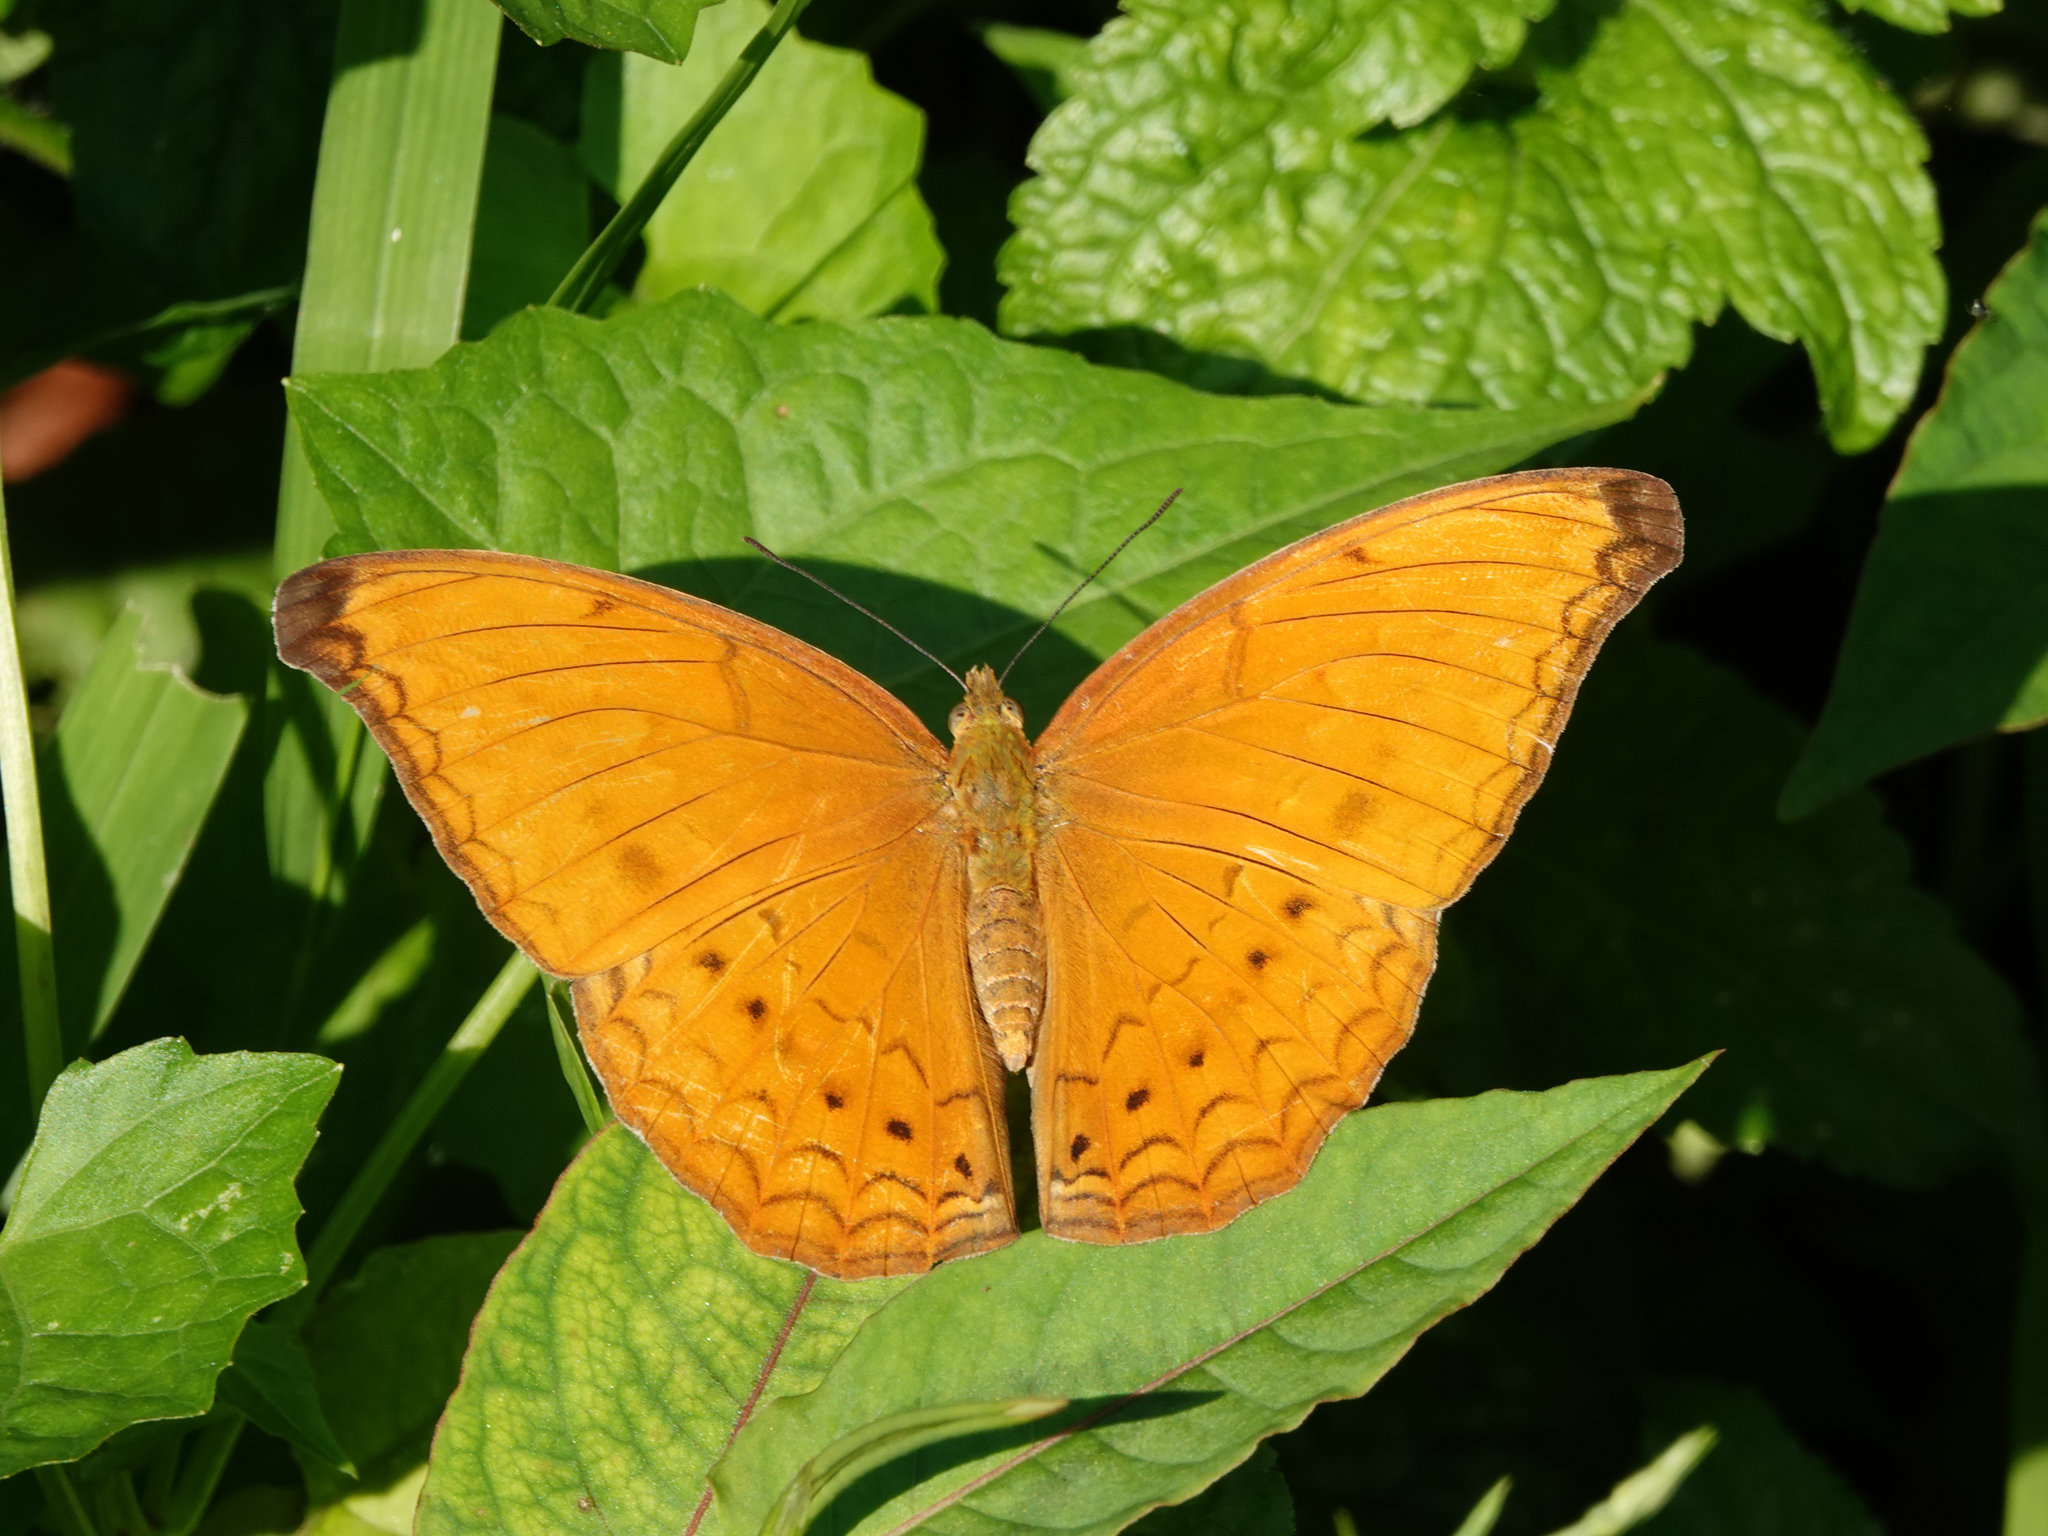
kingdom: Animalia
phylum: Arthropoda
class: Insecta
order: Lepidoptera
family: Nymphalidae
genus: Cirrochroa
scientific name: Cirrochroa aoris
